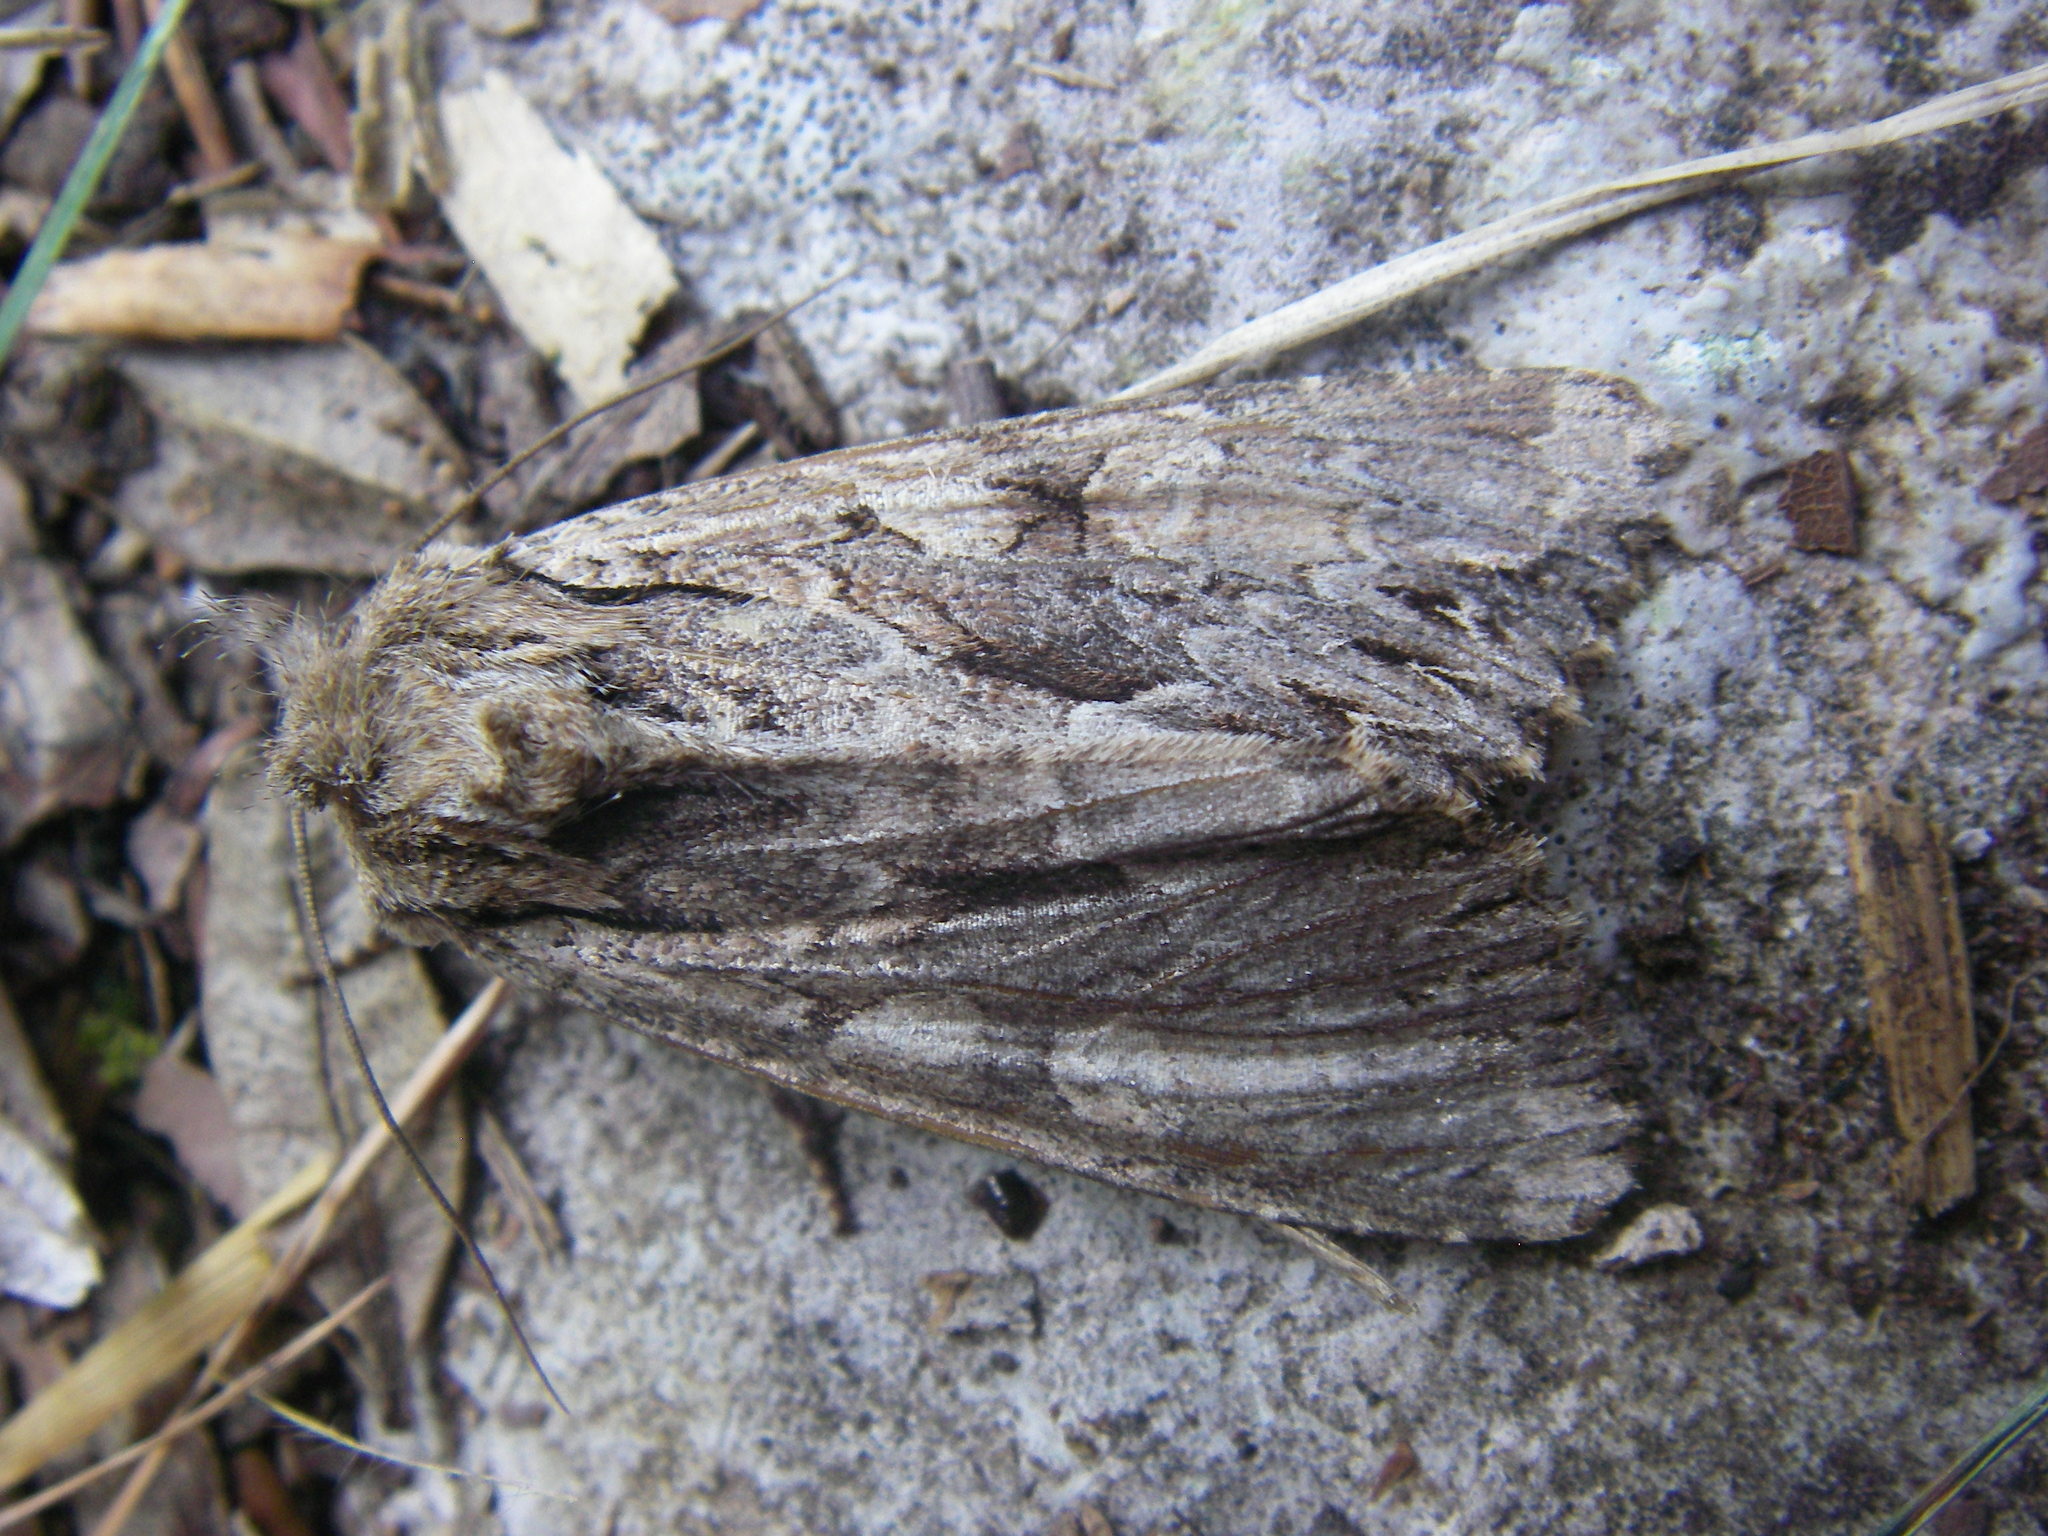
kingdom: Animalia
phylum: Arthropoda
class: Insecta
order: Lepidoptera
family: Noctuidae
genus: Apamea
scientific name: Apamea monoglypha
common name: Dark arches
